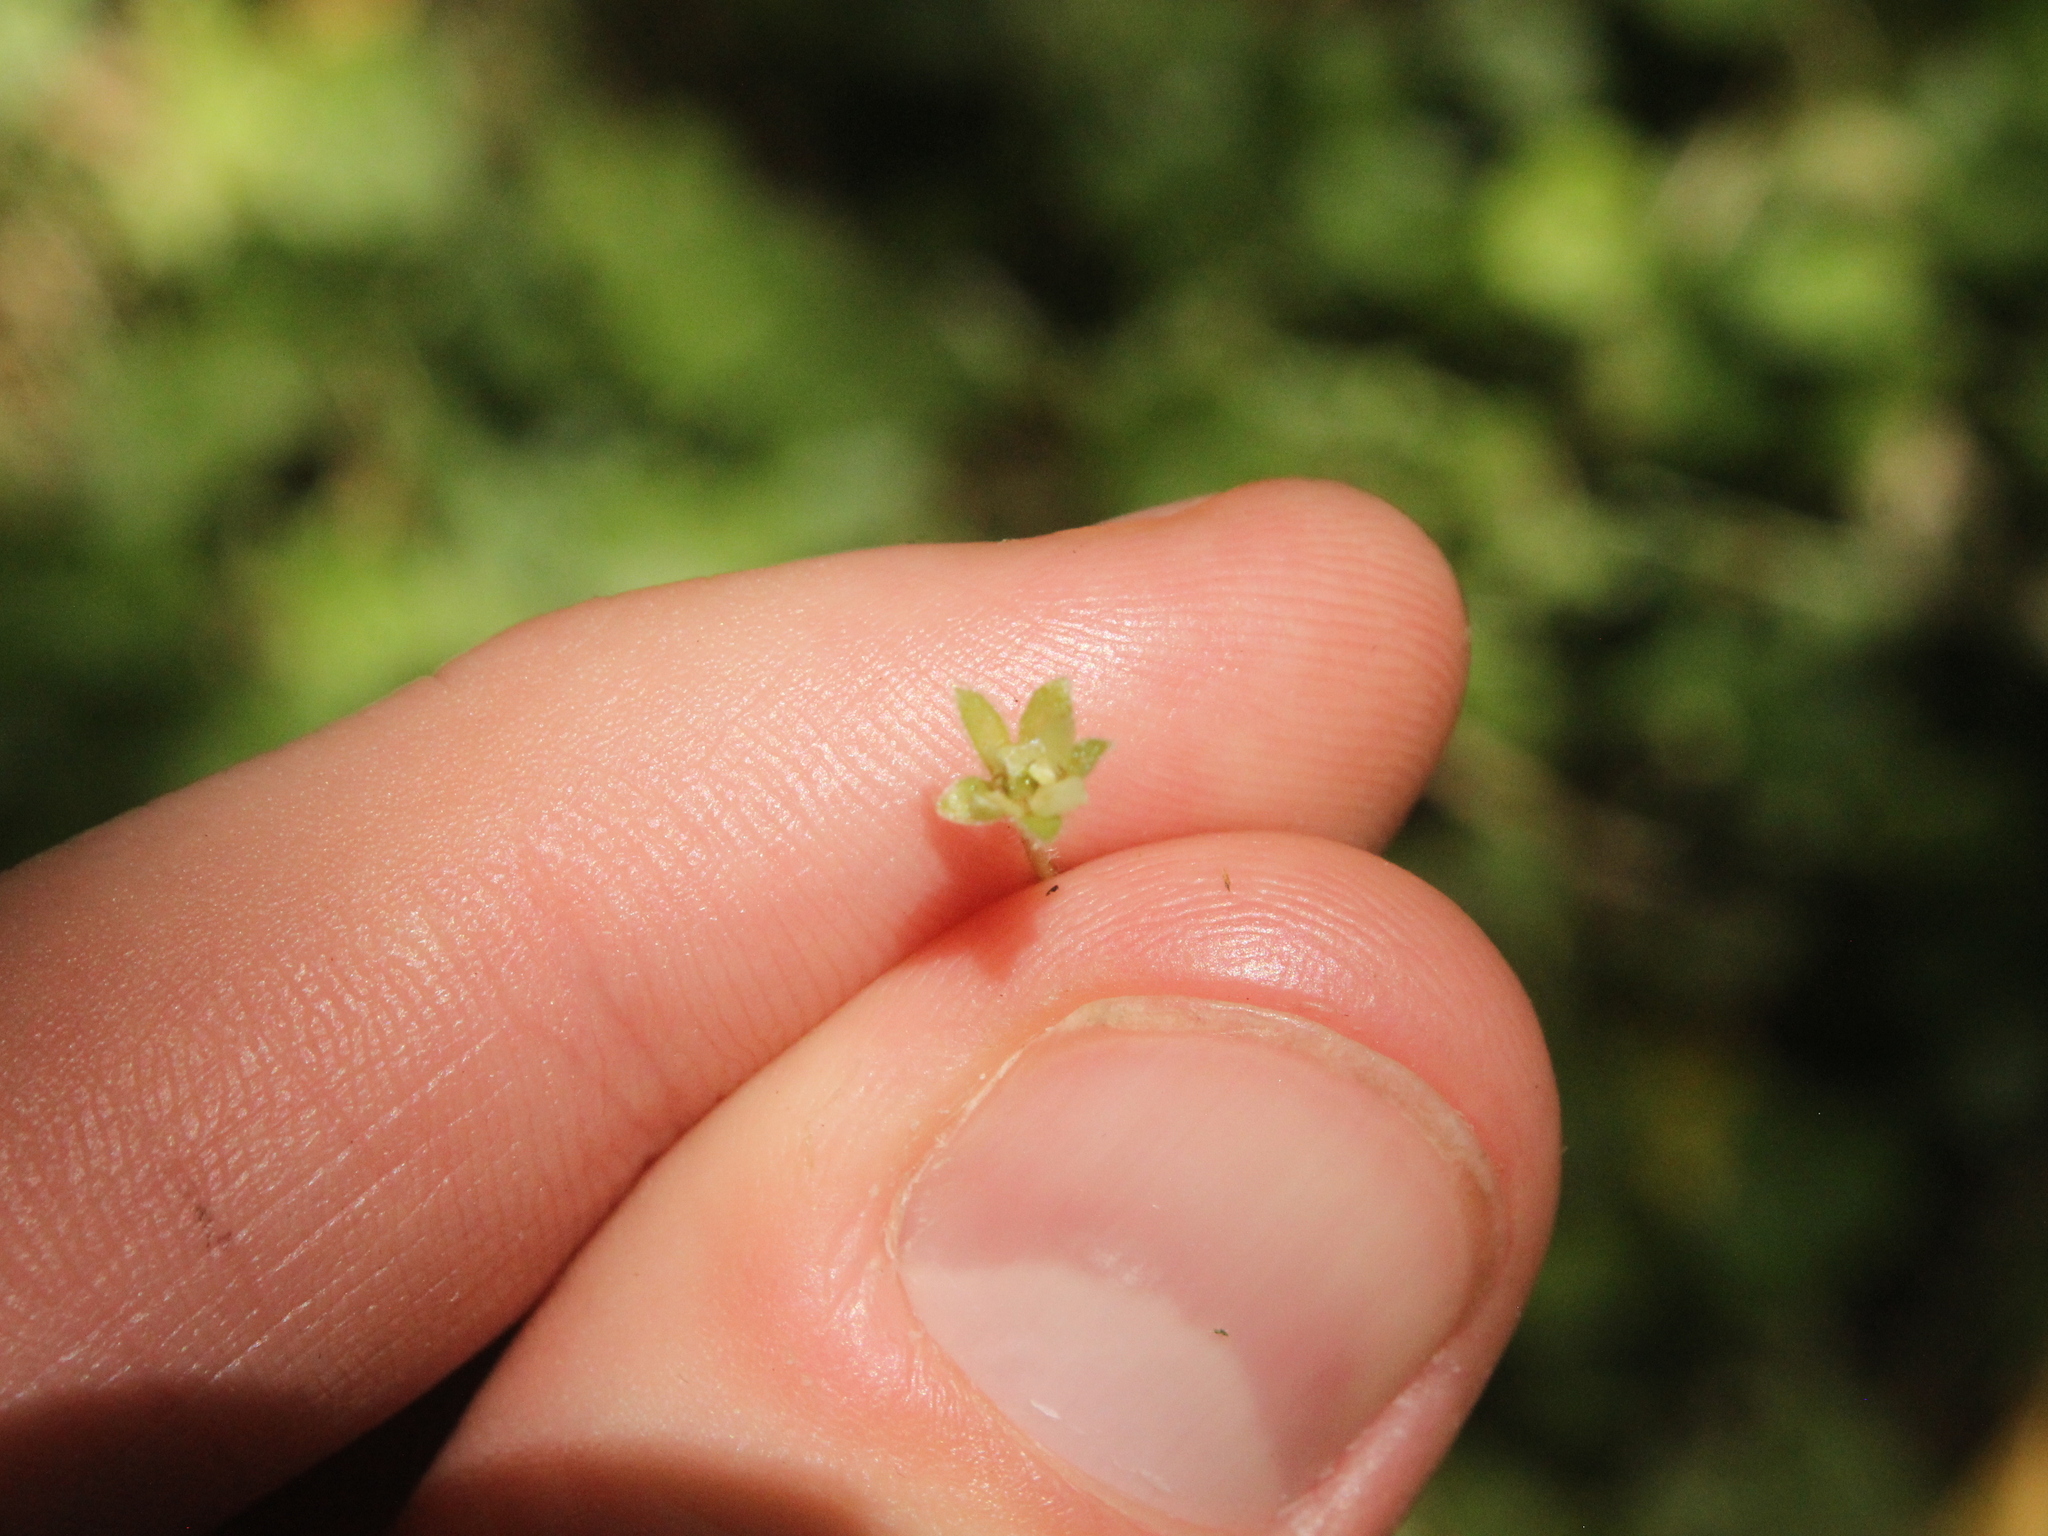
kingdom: Plantae
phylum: Tracheophyta
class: Magnoliopsida
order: Solanales
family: Convolvulaceae
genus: Dichondra
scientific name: Dichondra repens
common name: Kidneyweed
